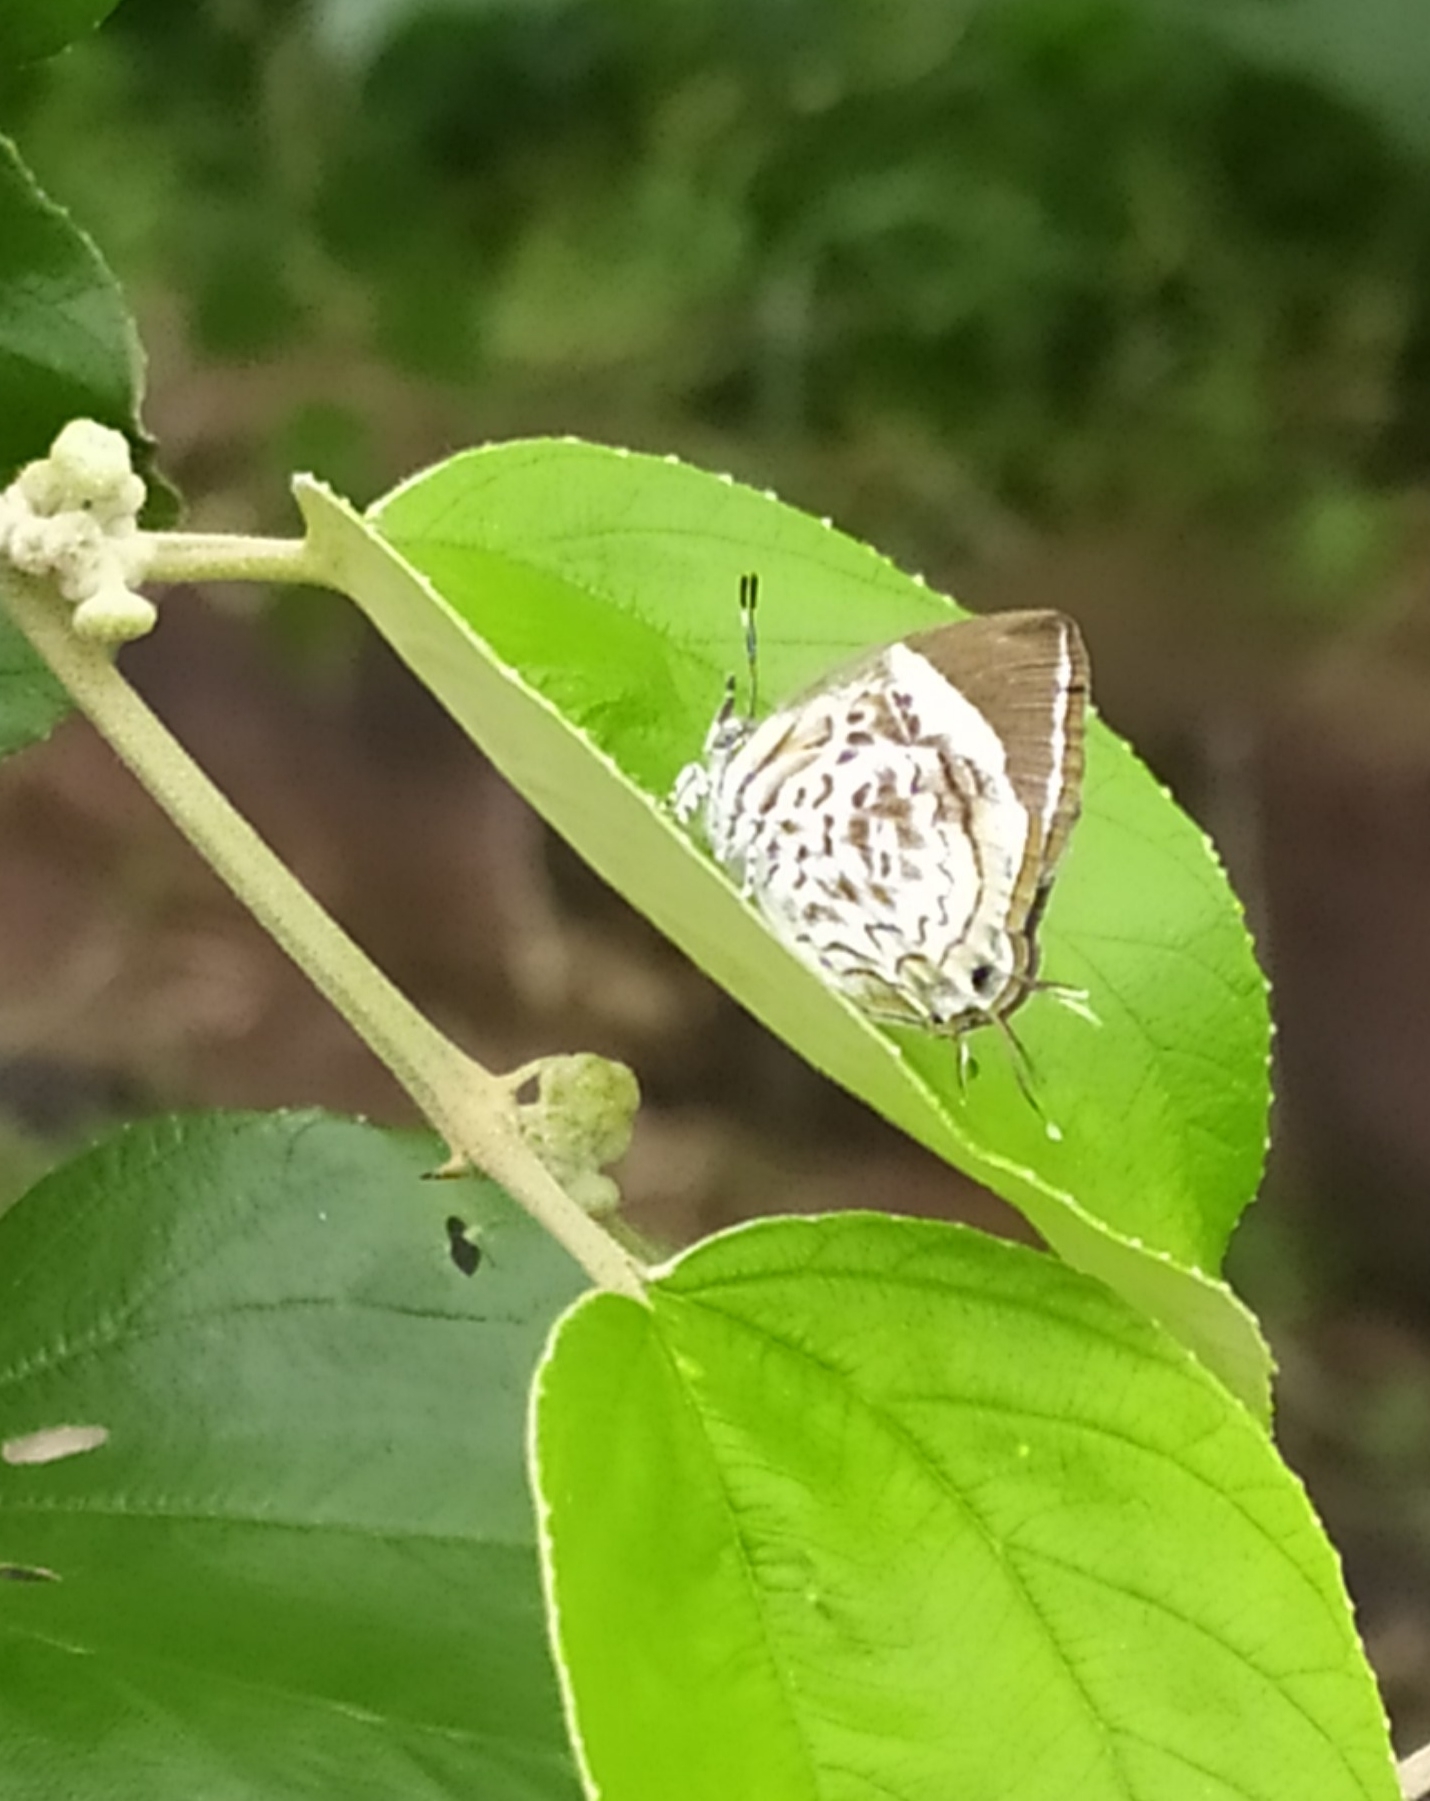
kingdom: Animalia
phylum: Arthropoda
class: Insecta
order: Lepidoptera
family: Lycaenidae
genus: Rathinda
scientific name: Rathinda amor
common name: Monkey puzzle
